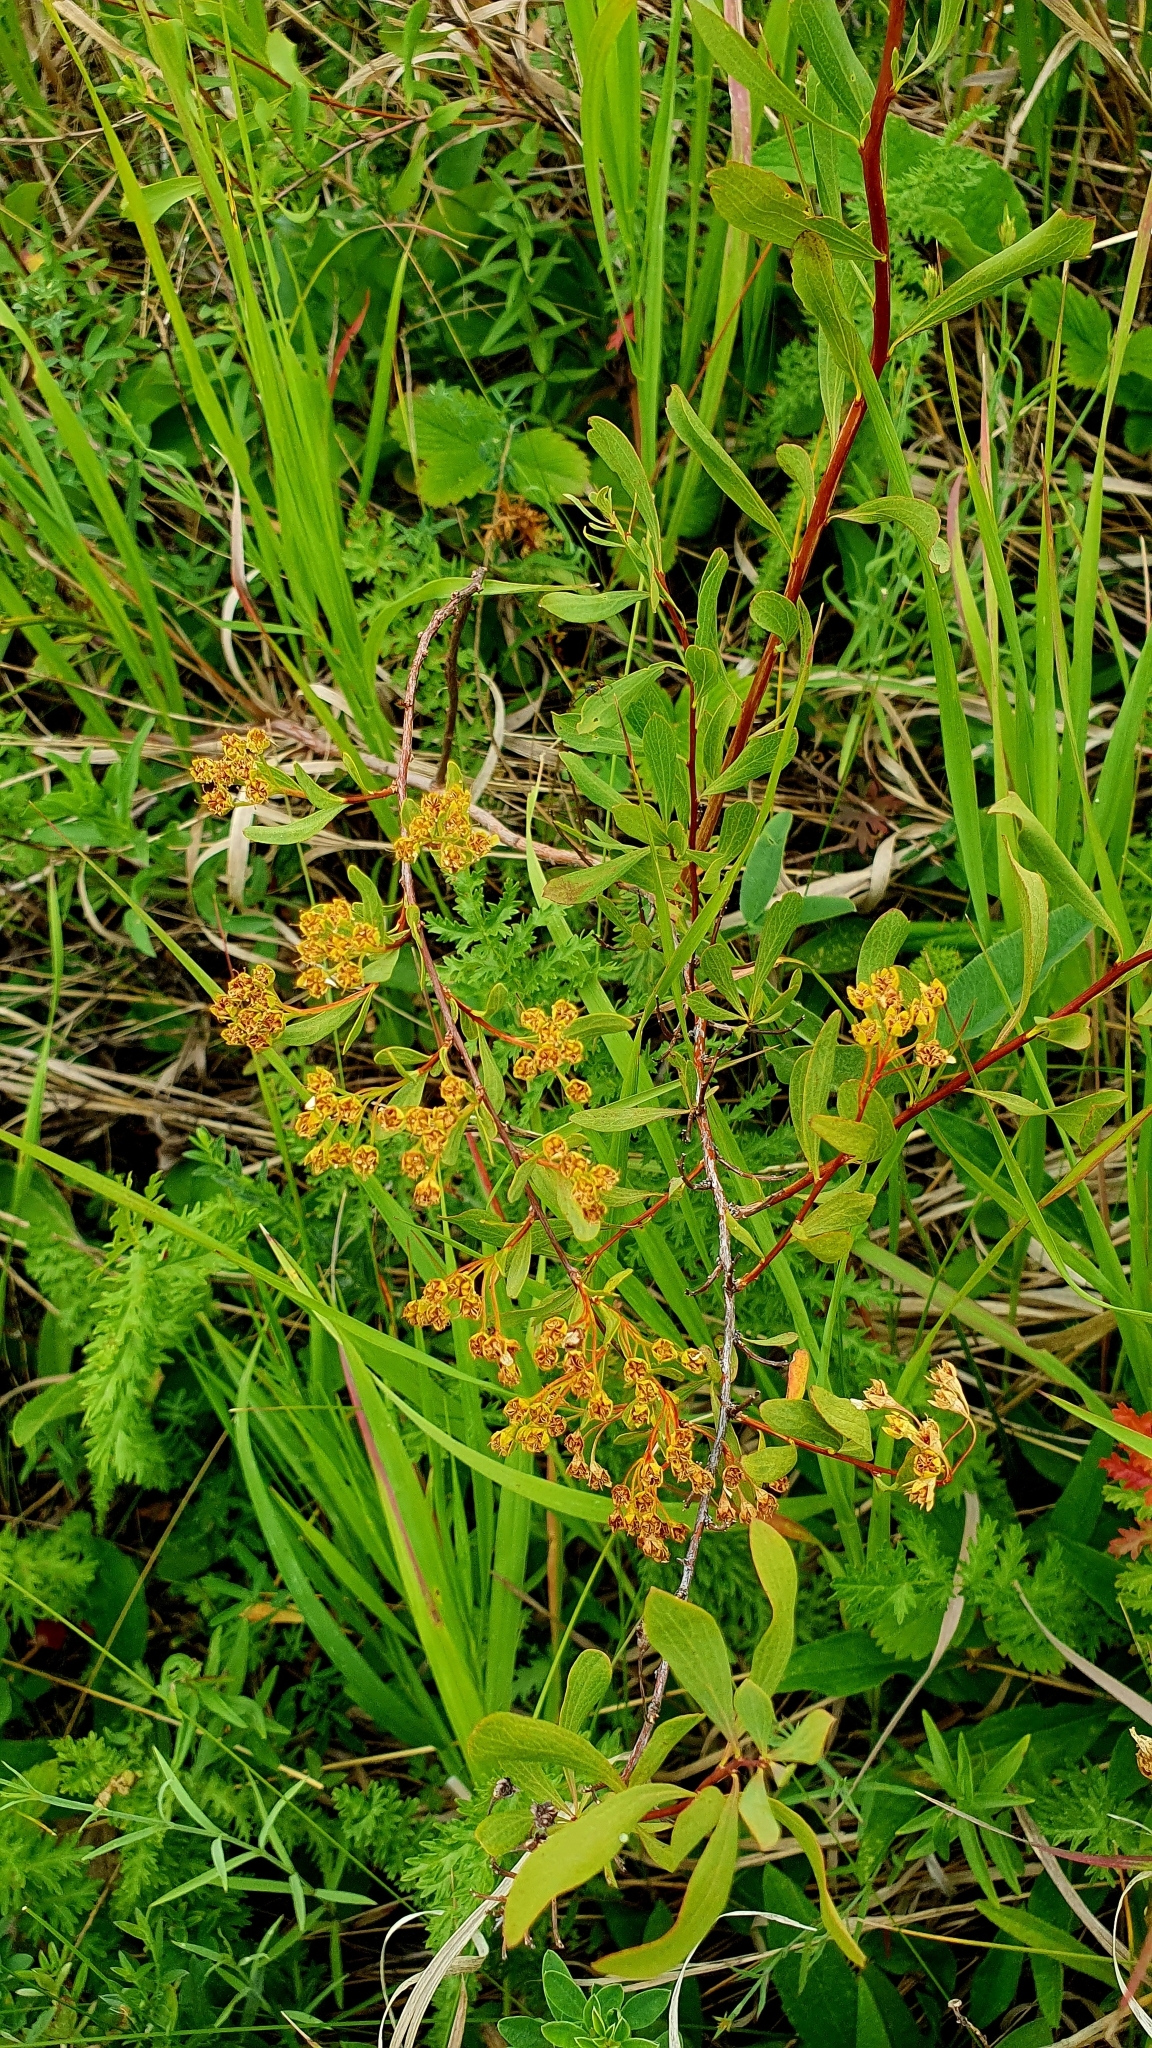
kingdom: Plantae
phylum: Tracheophyta
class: Magnoliopsida
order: Rosales
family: Rosaceae
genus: Spiraea
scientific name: Spiraea crenata
